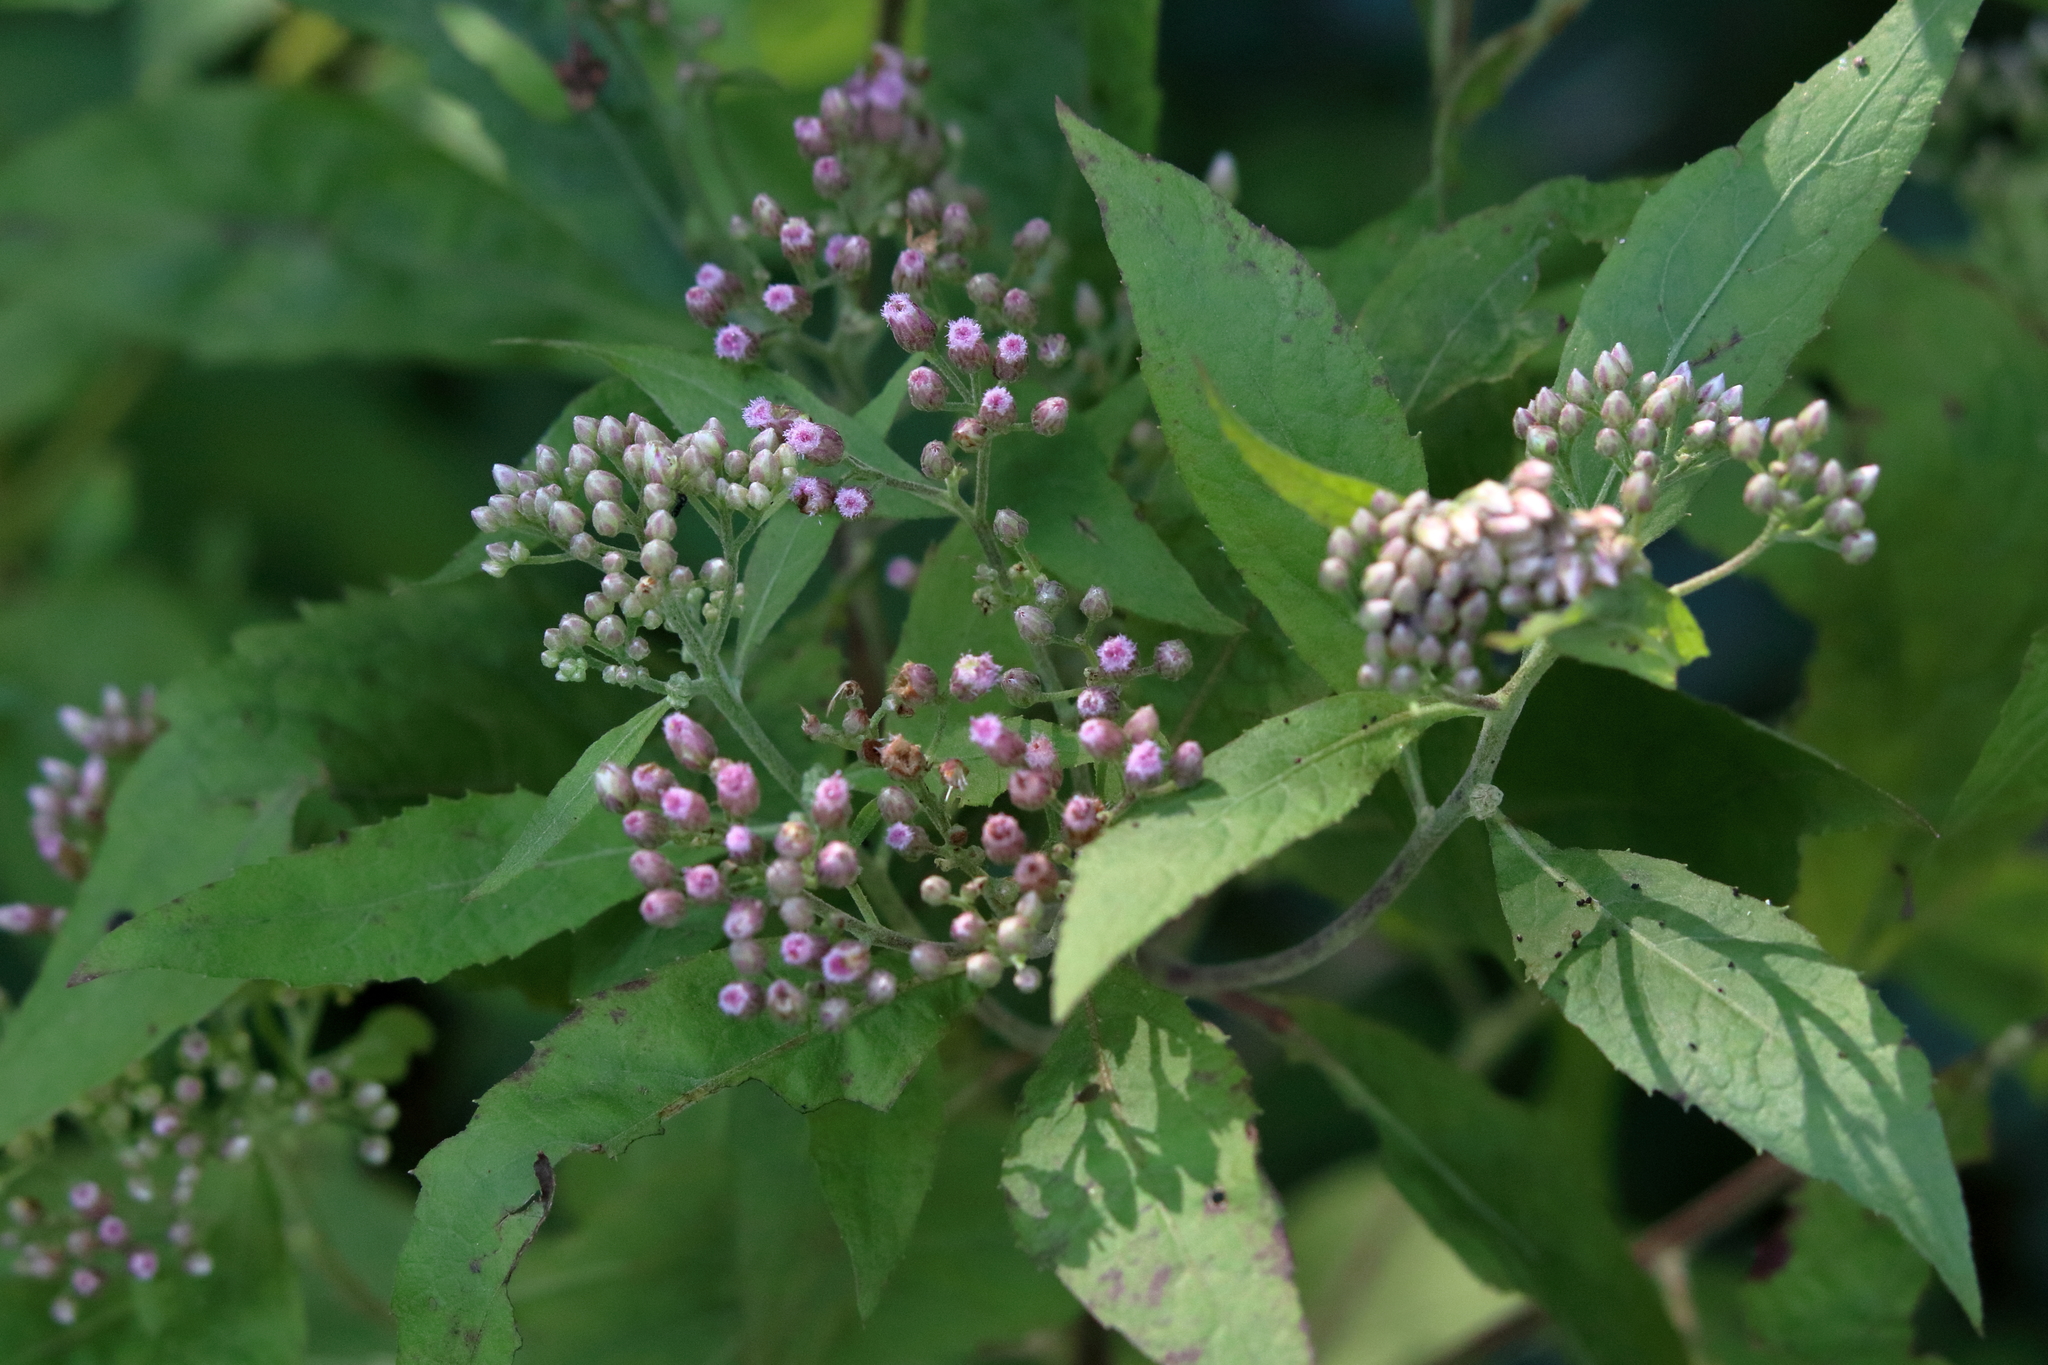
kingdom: Plantae
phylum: Tracheophyta
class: Magnoliopsida
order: Asterales
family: Asteraceae
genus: Pluchea
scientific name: Pluchea camphorata
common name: Camphor pluchea
